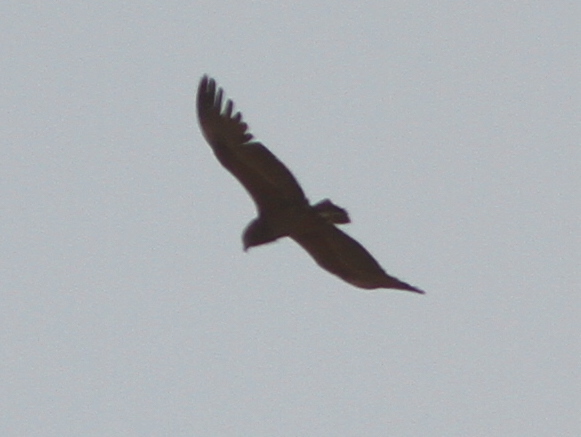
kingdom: Animalia
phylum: Chordata
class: Aves
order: Accipitriformes
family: Accipitridae
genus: Terathopius
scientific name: Terathopius ecaudatus
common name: Bateleur
